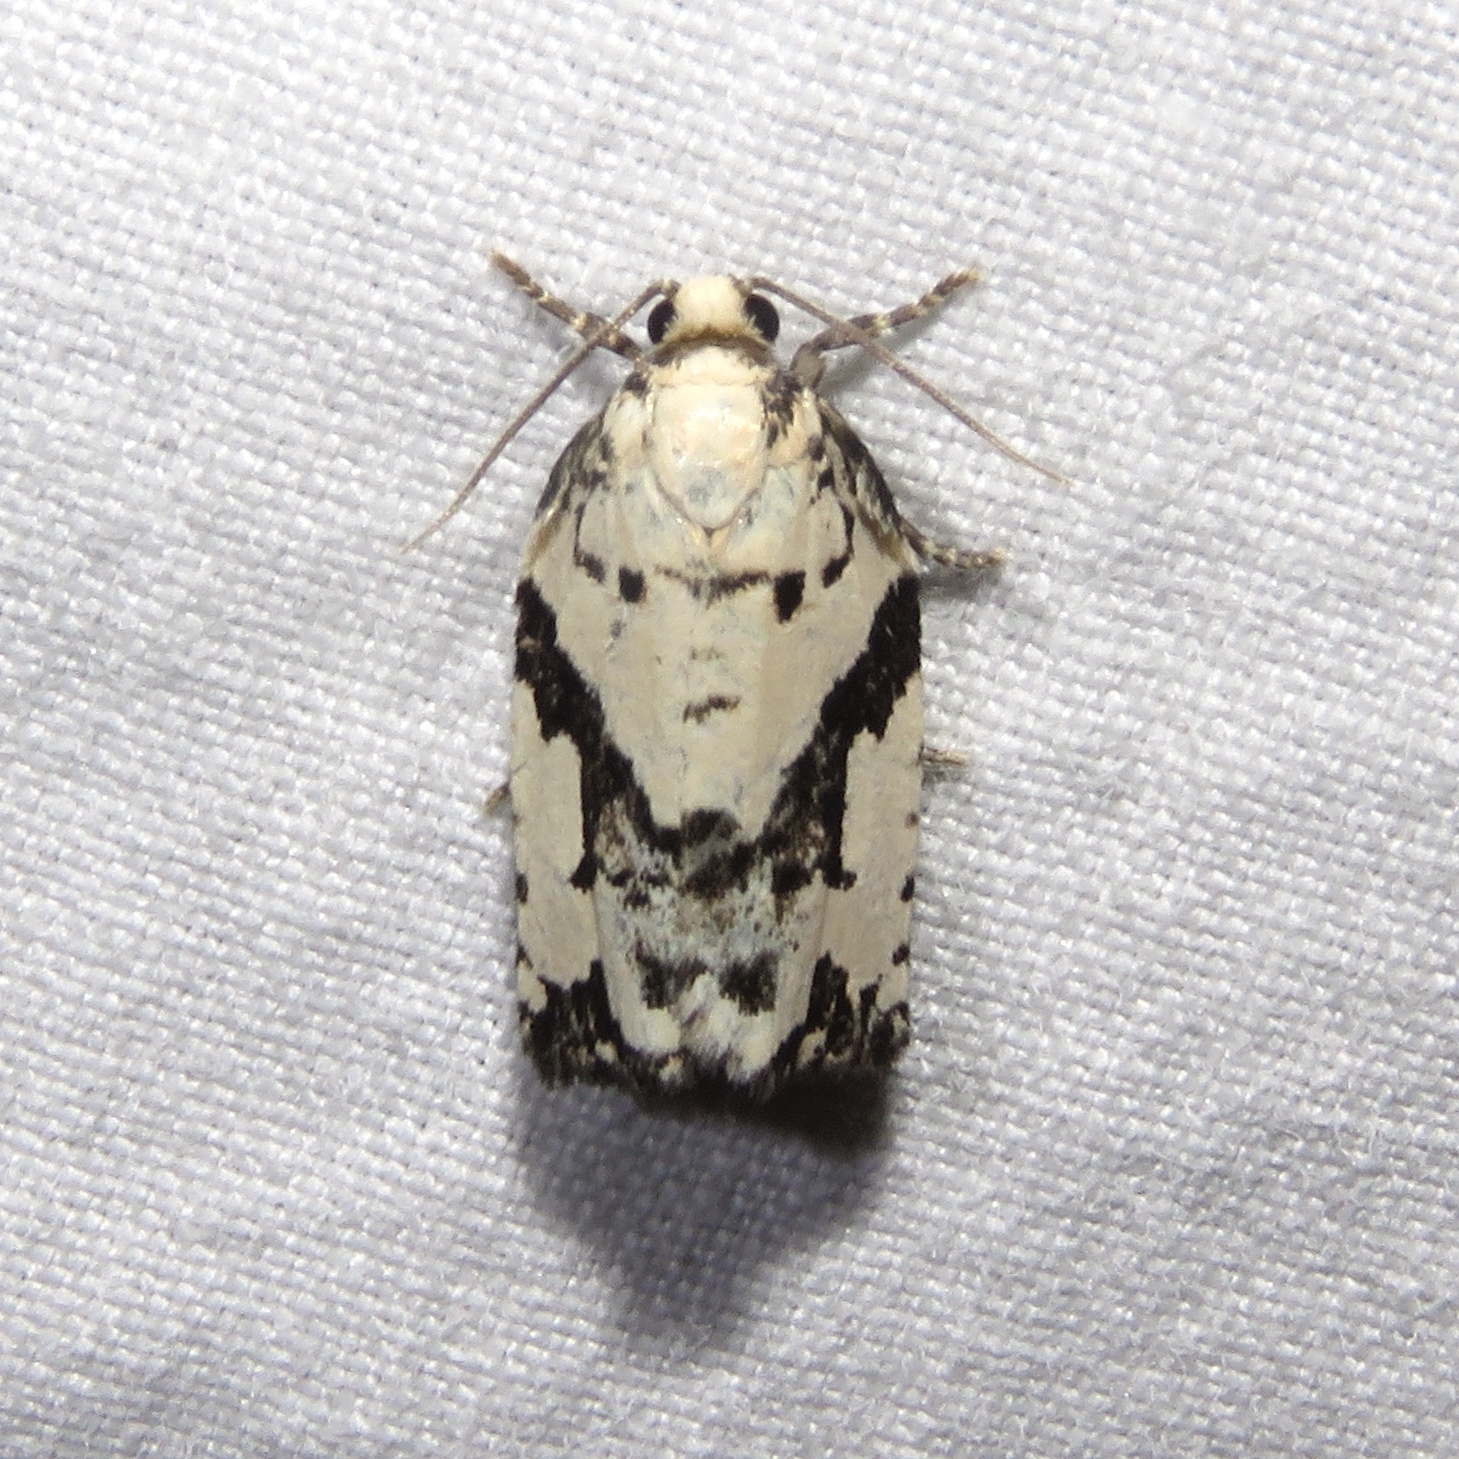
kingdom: Animalia
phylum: Arthropoda
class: Insecta
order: Lepidoptera
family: Tortricidae
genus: Archips
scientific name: Archips dissitana
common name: Boldly-marked archips moth
